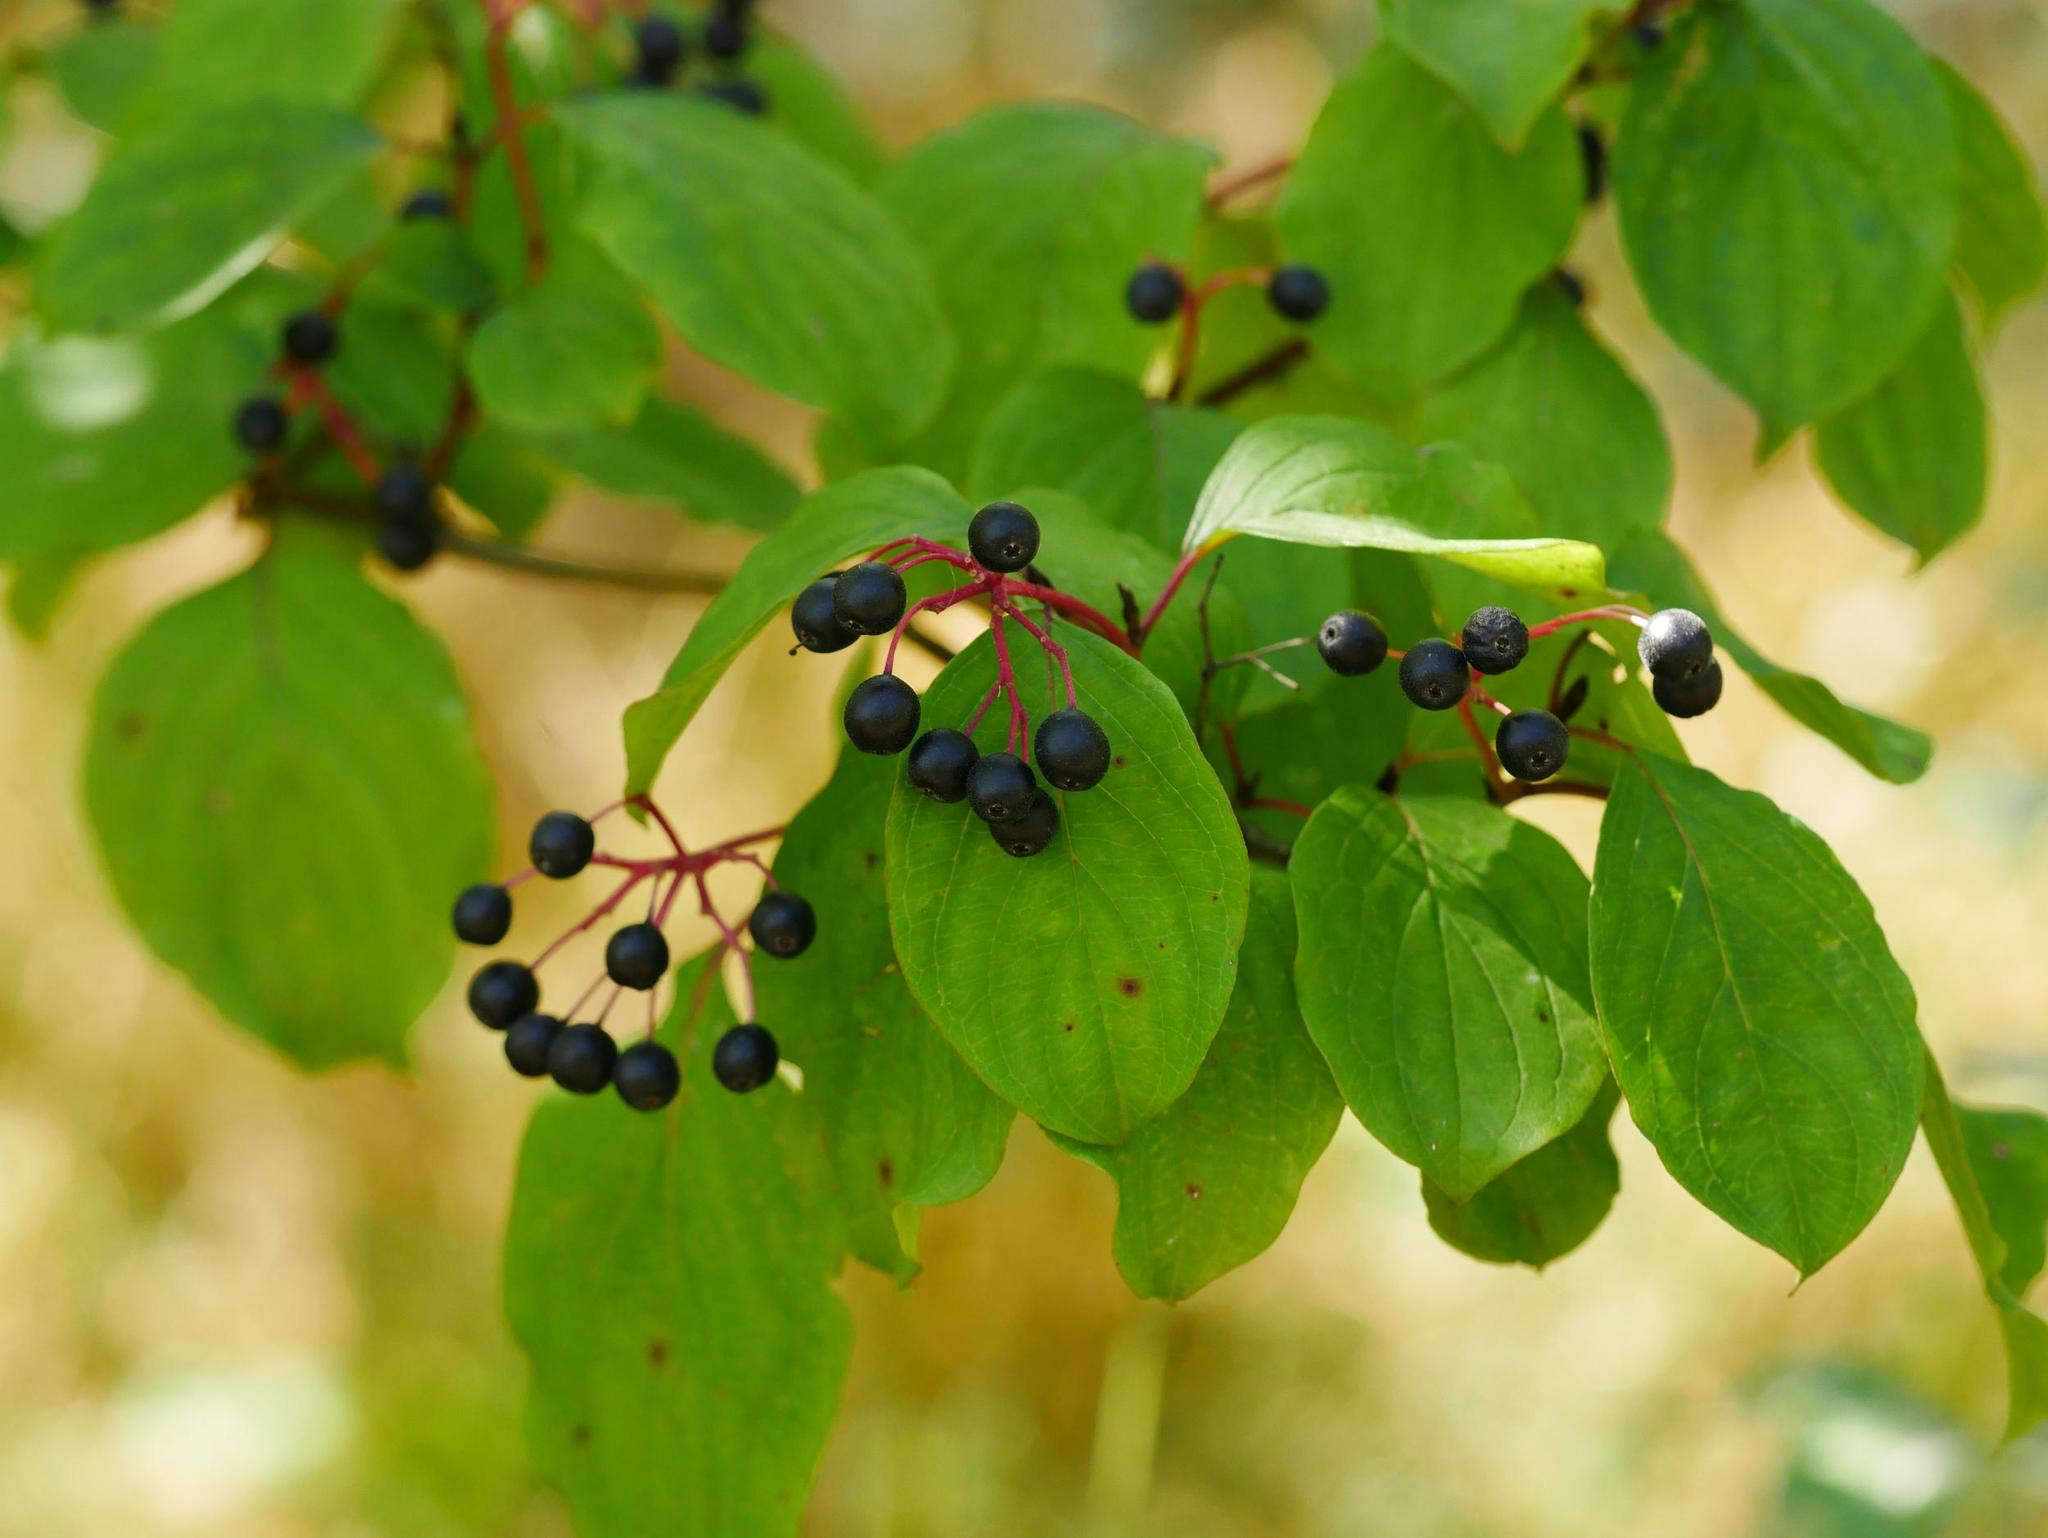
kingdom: Plantae
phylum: Tracheophyta
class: Magnoliopsida
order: Cornales
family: Cornaceae
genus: Cornus
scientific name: Cornus sanguinea
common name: Dogwood
